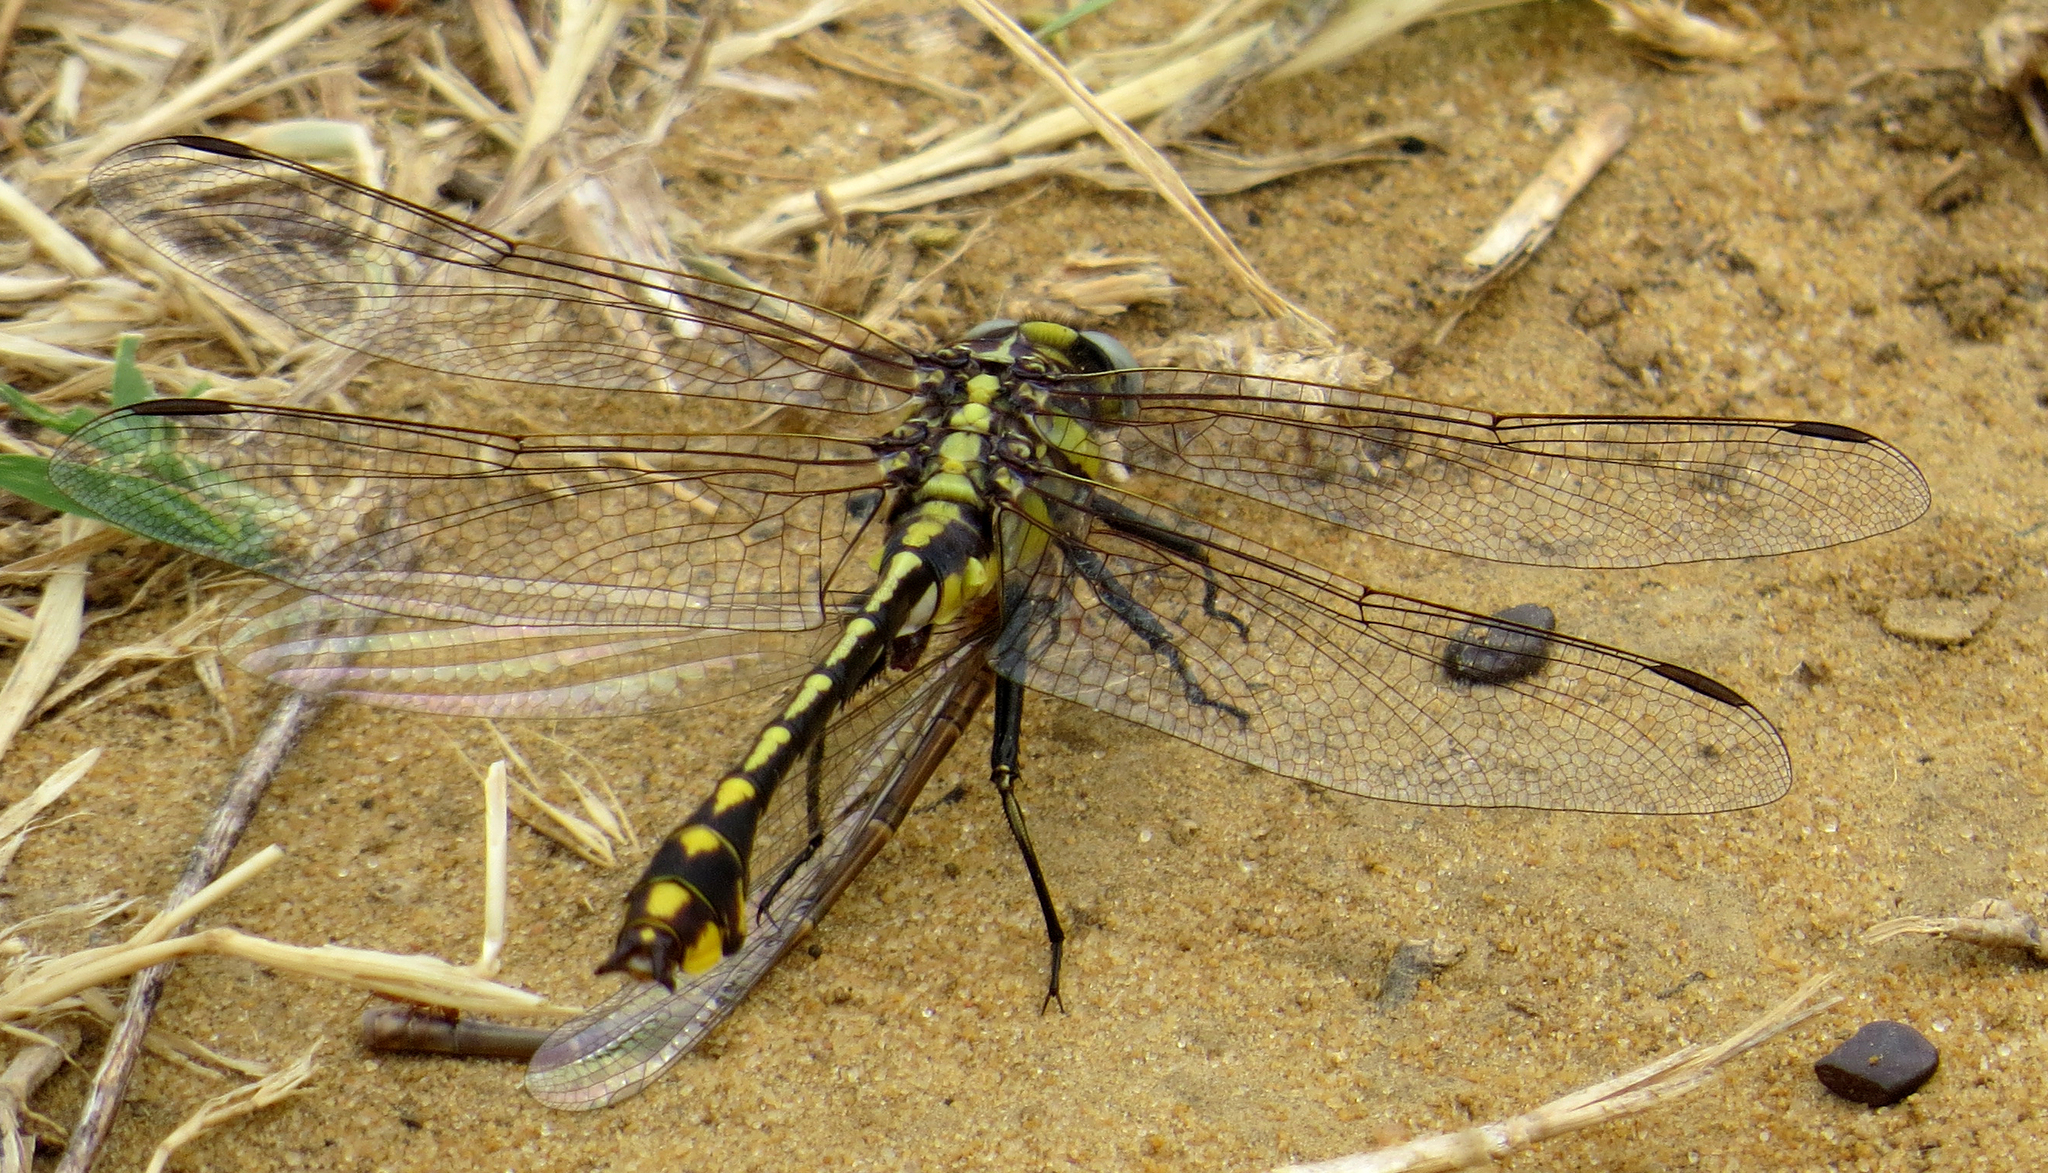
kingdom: Animalia
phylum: Arthropoda
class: Insecta
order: Odonata
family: Gomphidae
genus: Gomphurus
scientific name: Gomphurus externus
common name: Plains clubtail
